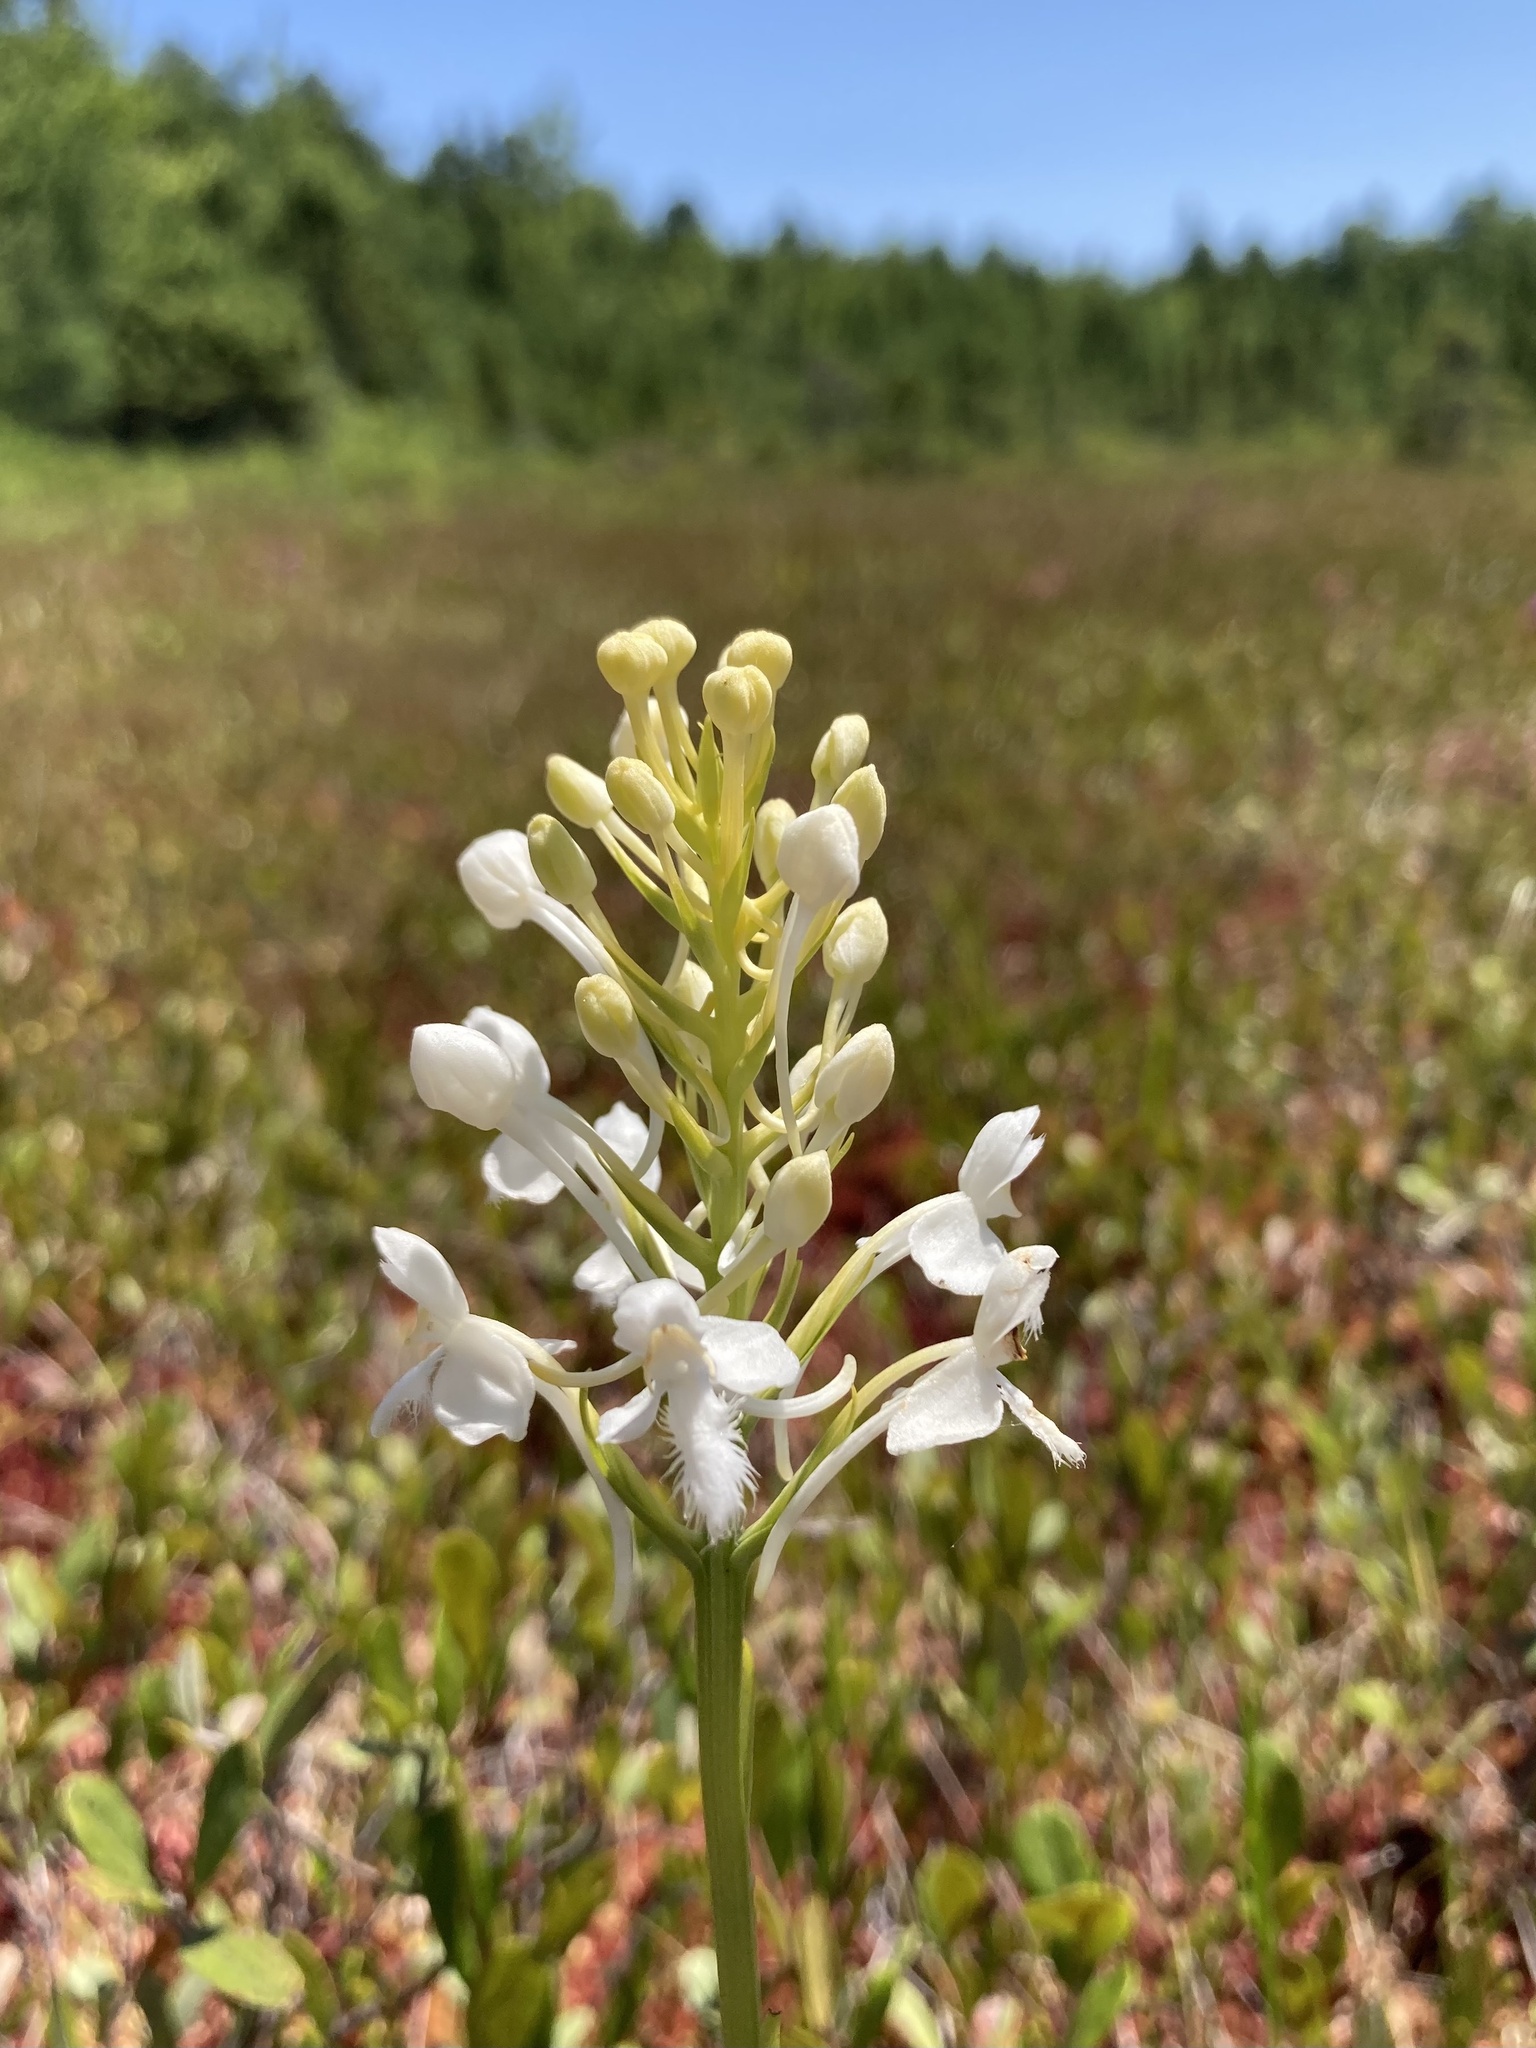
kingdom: Plantae
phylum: Tracheophyta
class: Liliopsida
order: Asparagales
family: Orchidaceae
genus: Platanthera
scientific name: Platanthera blephariglottis
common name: White fringed orchid
